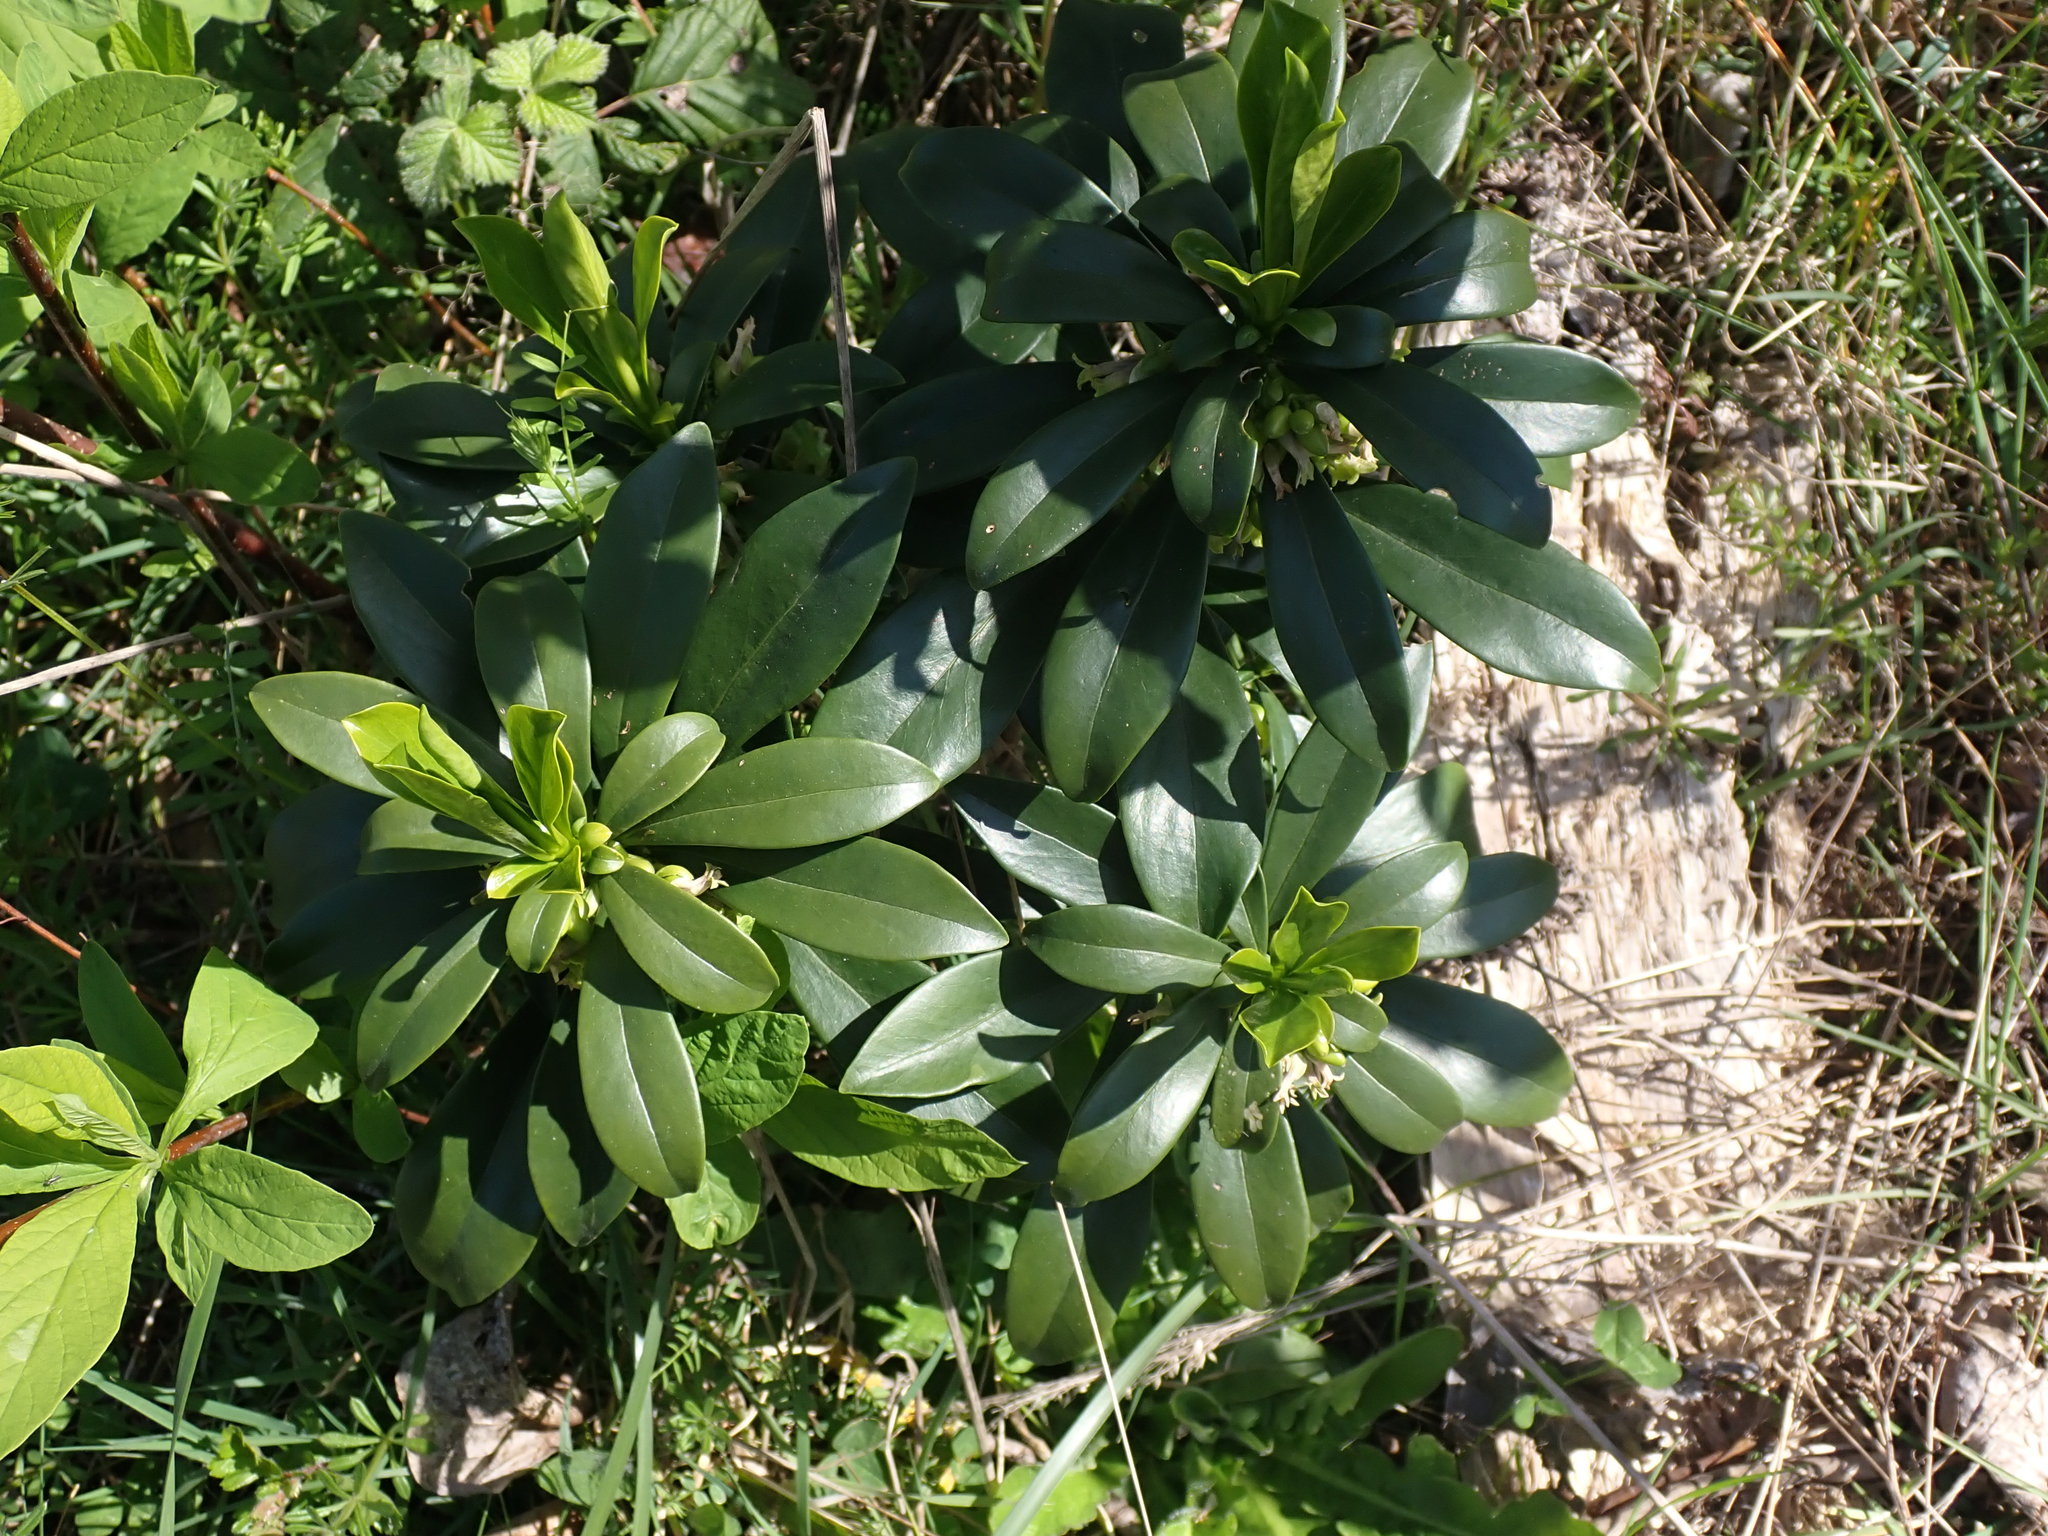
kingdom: Plantae
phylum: Tracheophyta
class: Magnoliopsida
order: Malvales
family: Thymelaeaceae
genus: Daphne
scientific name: Daphne laureola
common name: Spurge-laurel
